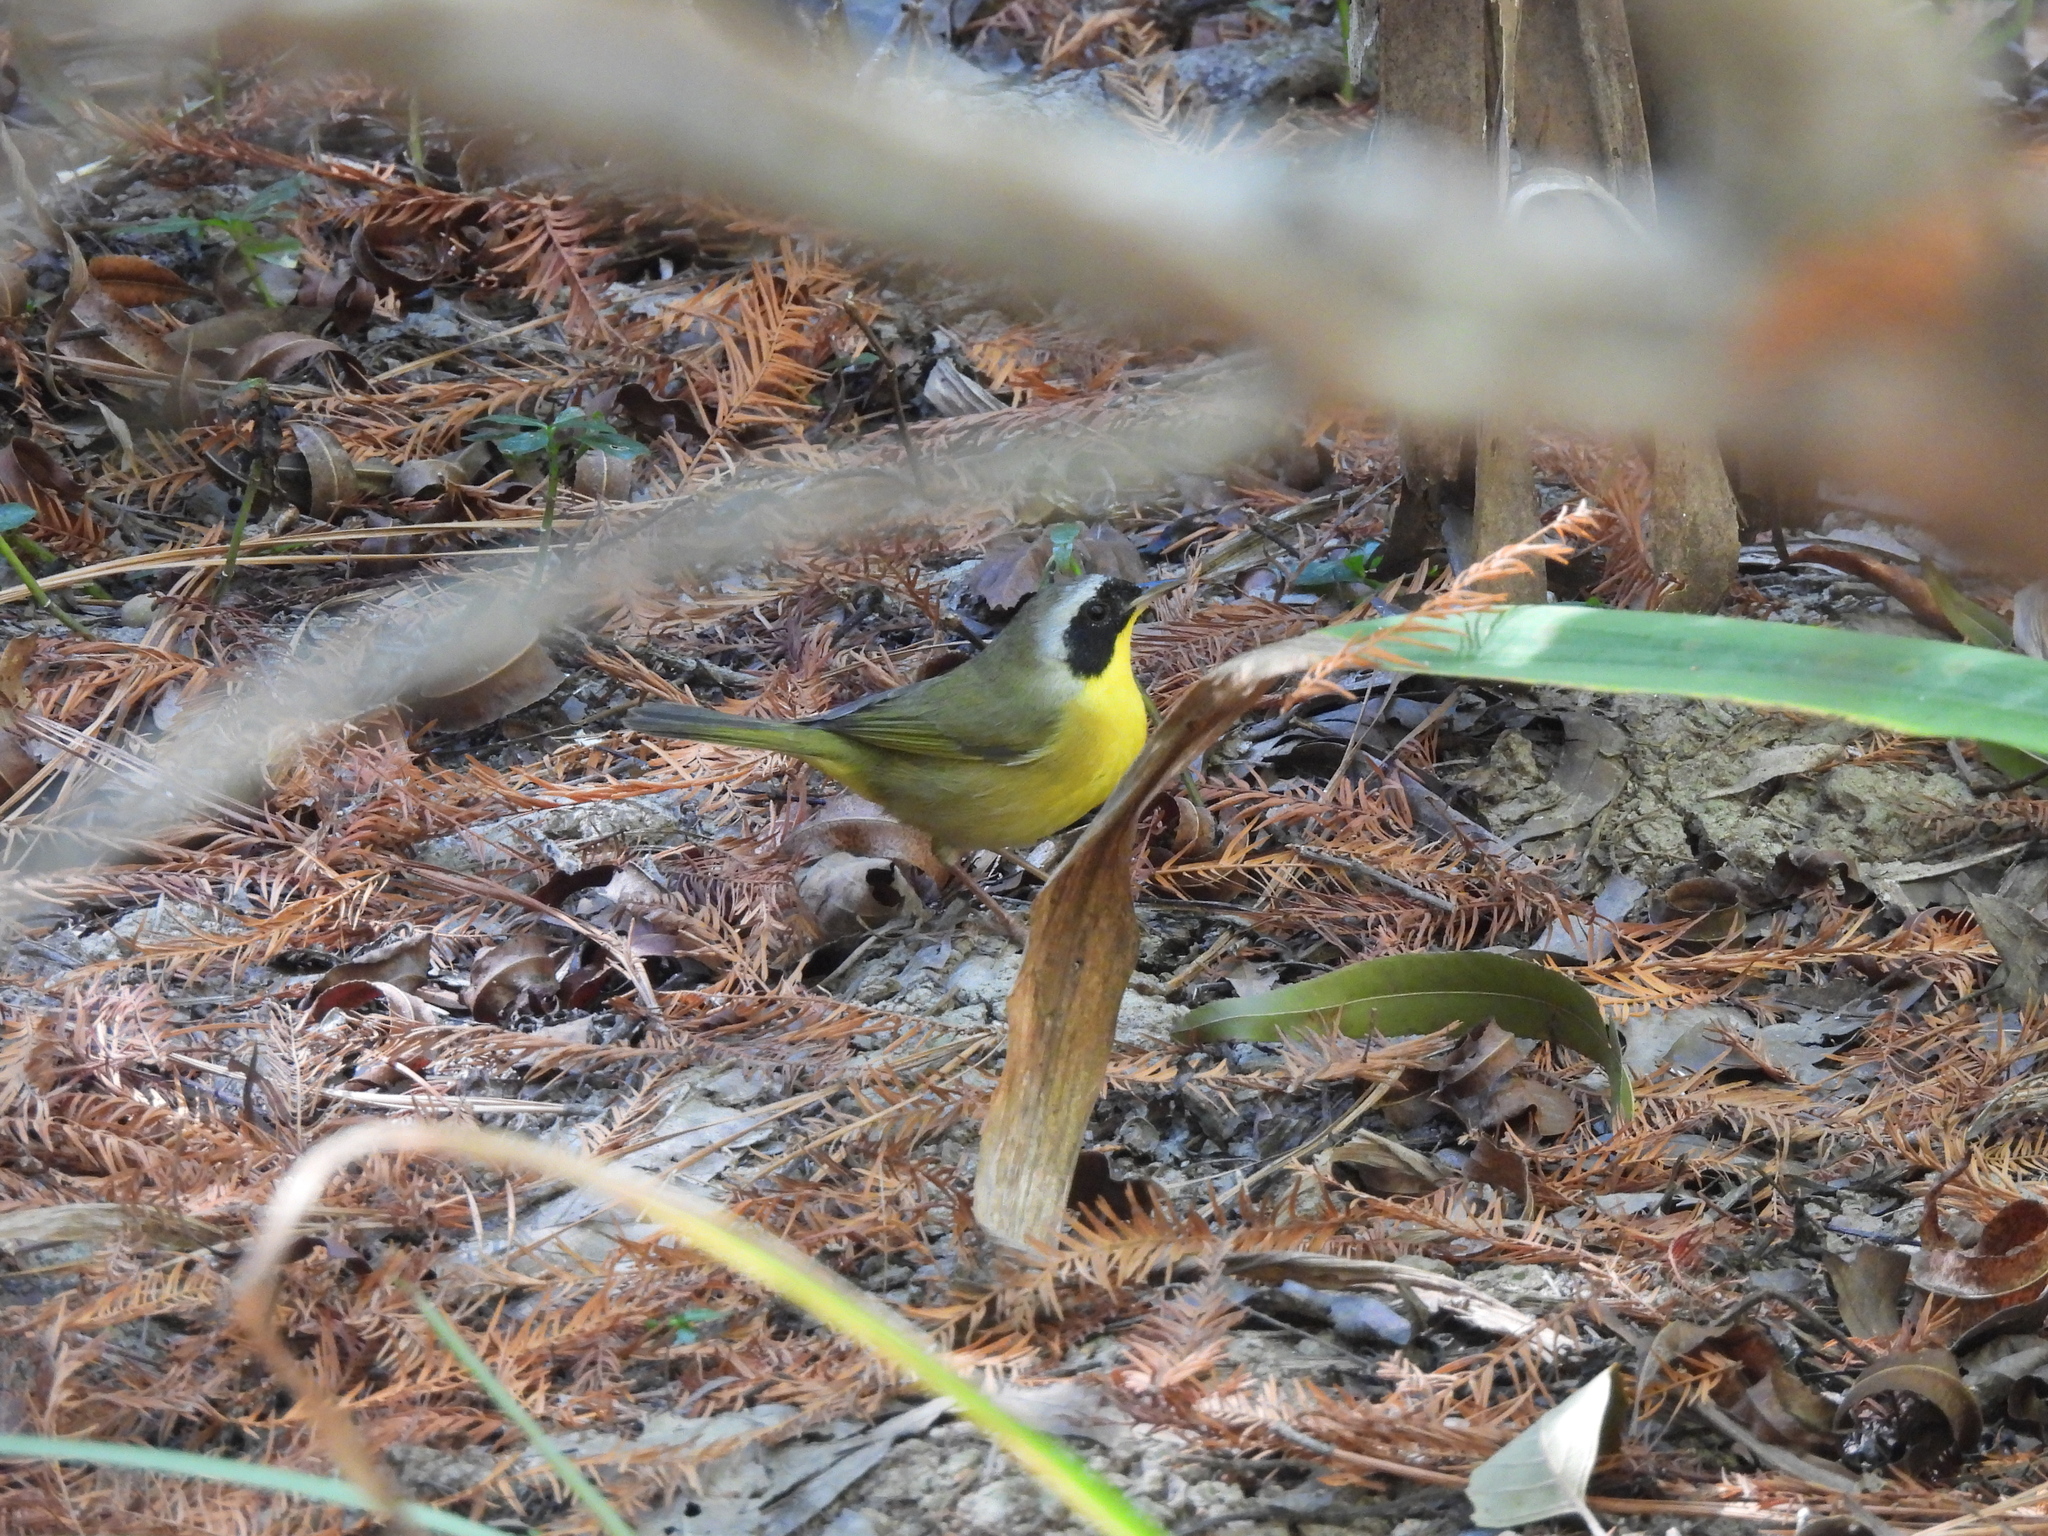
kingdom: Animalia
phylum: Chordata
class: Aves
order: Passeriformes
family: Parulidae
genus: Geothlypis
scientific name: Geothlypis trichas
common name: Common yellowthroat
